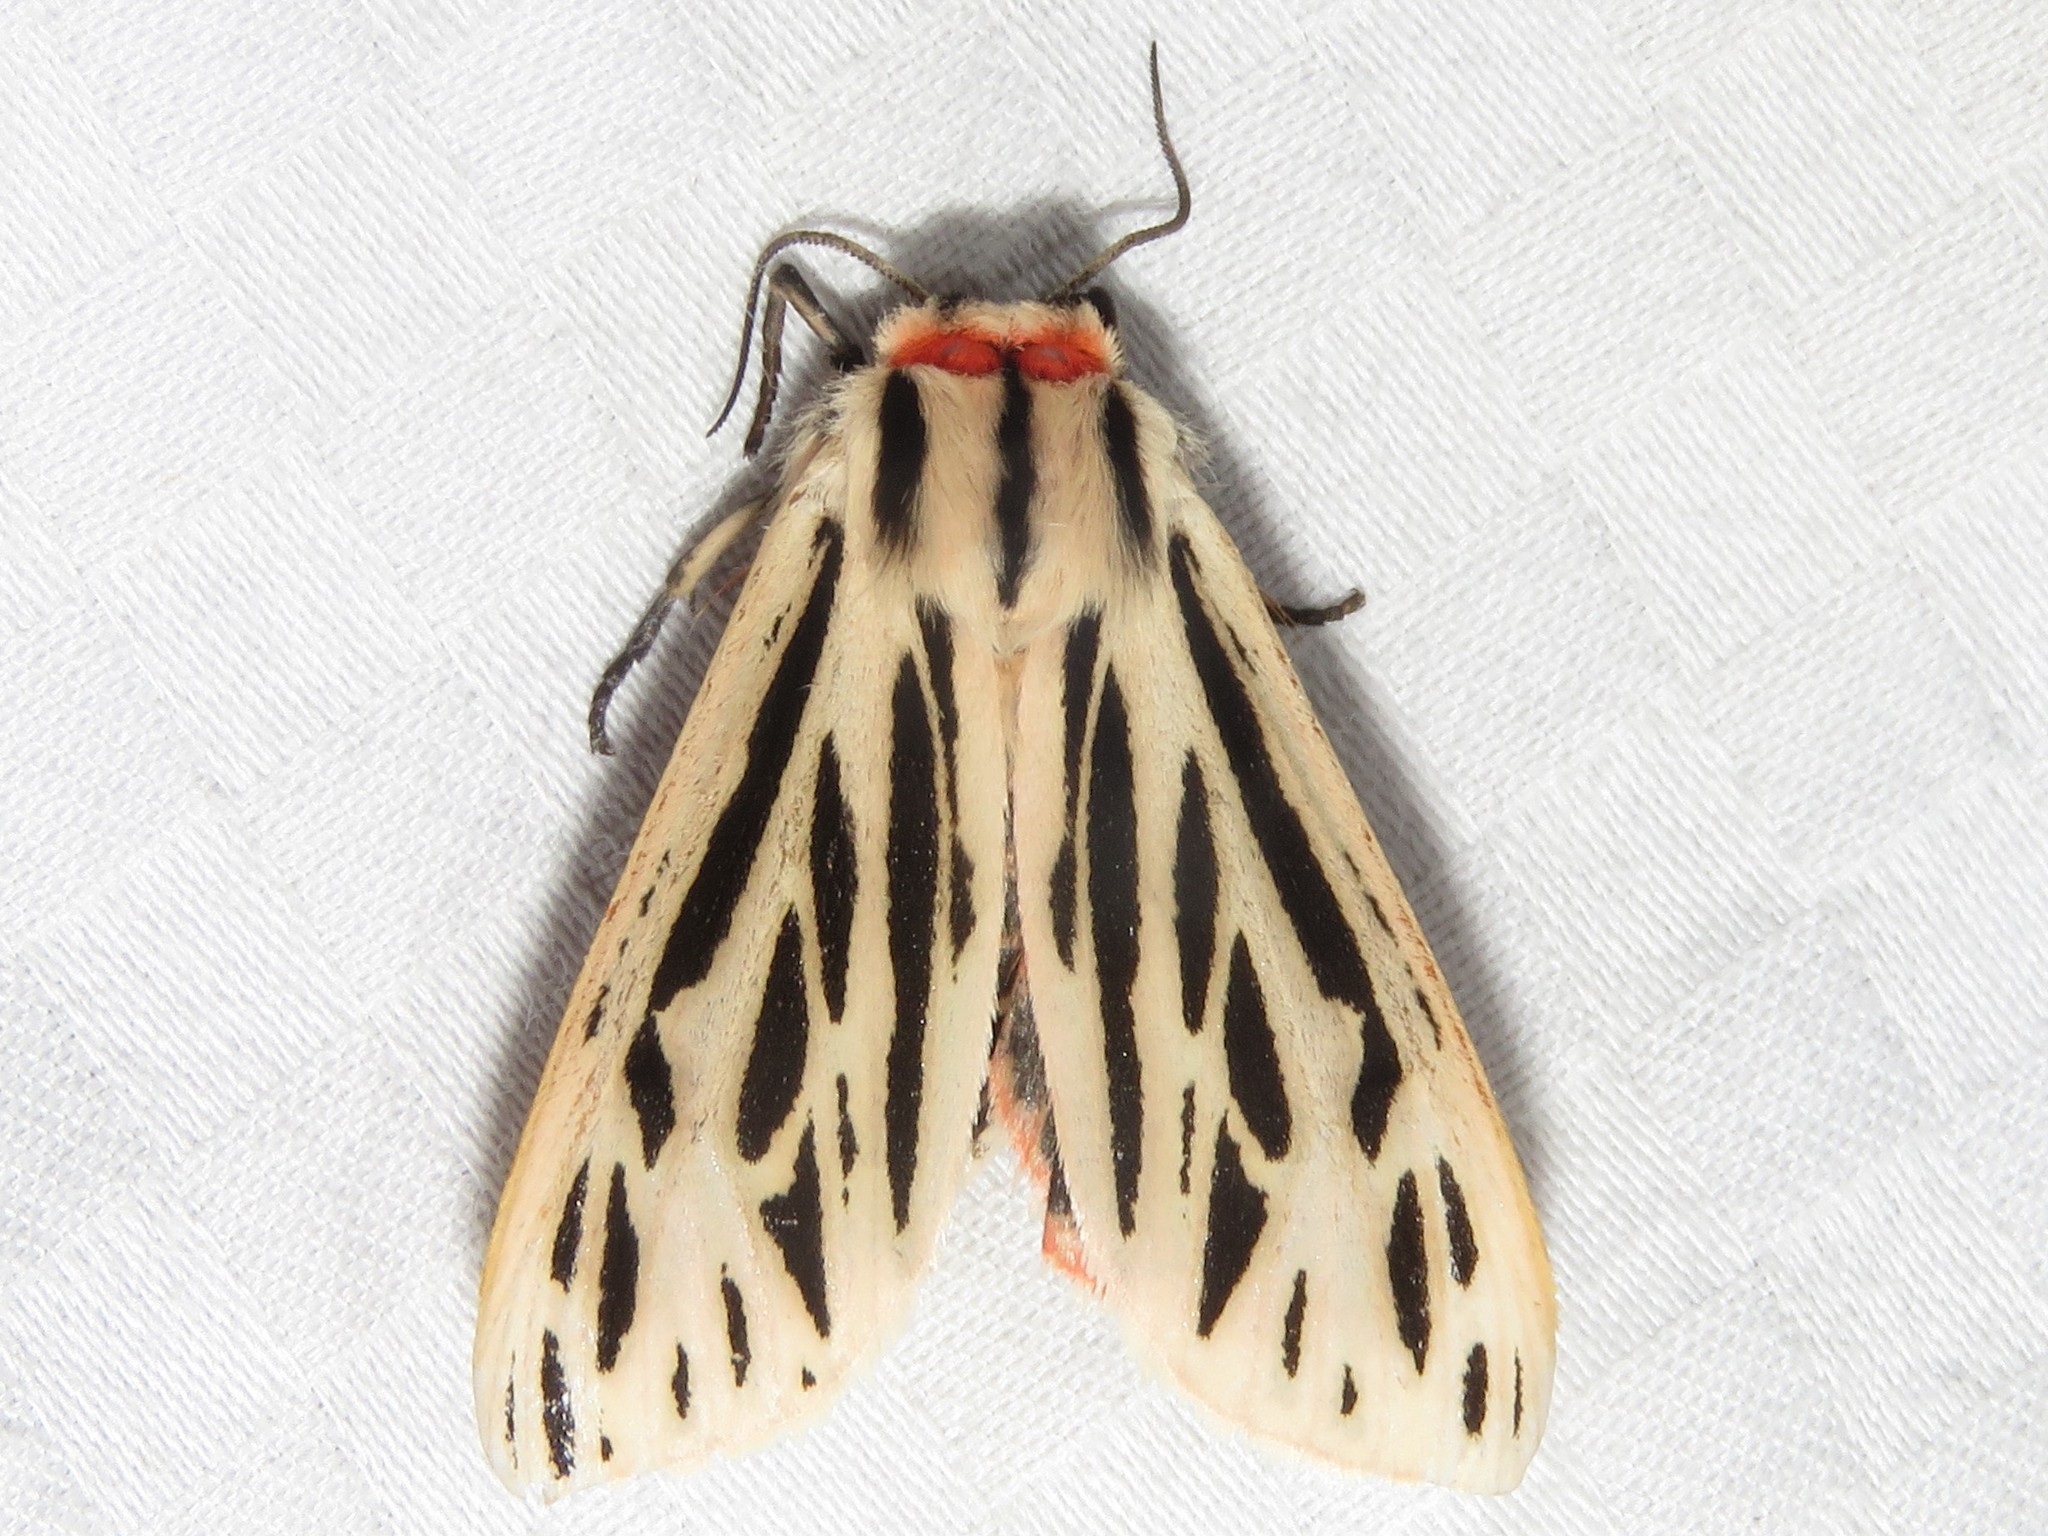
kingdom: Animalia
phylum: Arthropoda
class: Insecta
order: Lepidoptera
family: Erebidae
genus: Apantesis
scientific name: Apantesis arge
